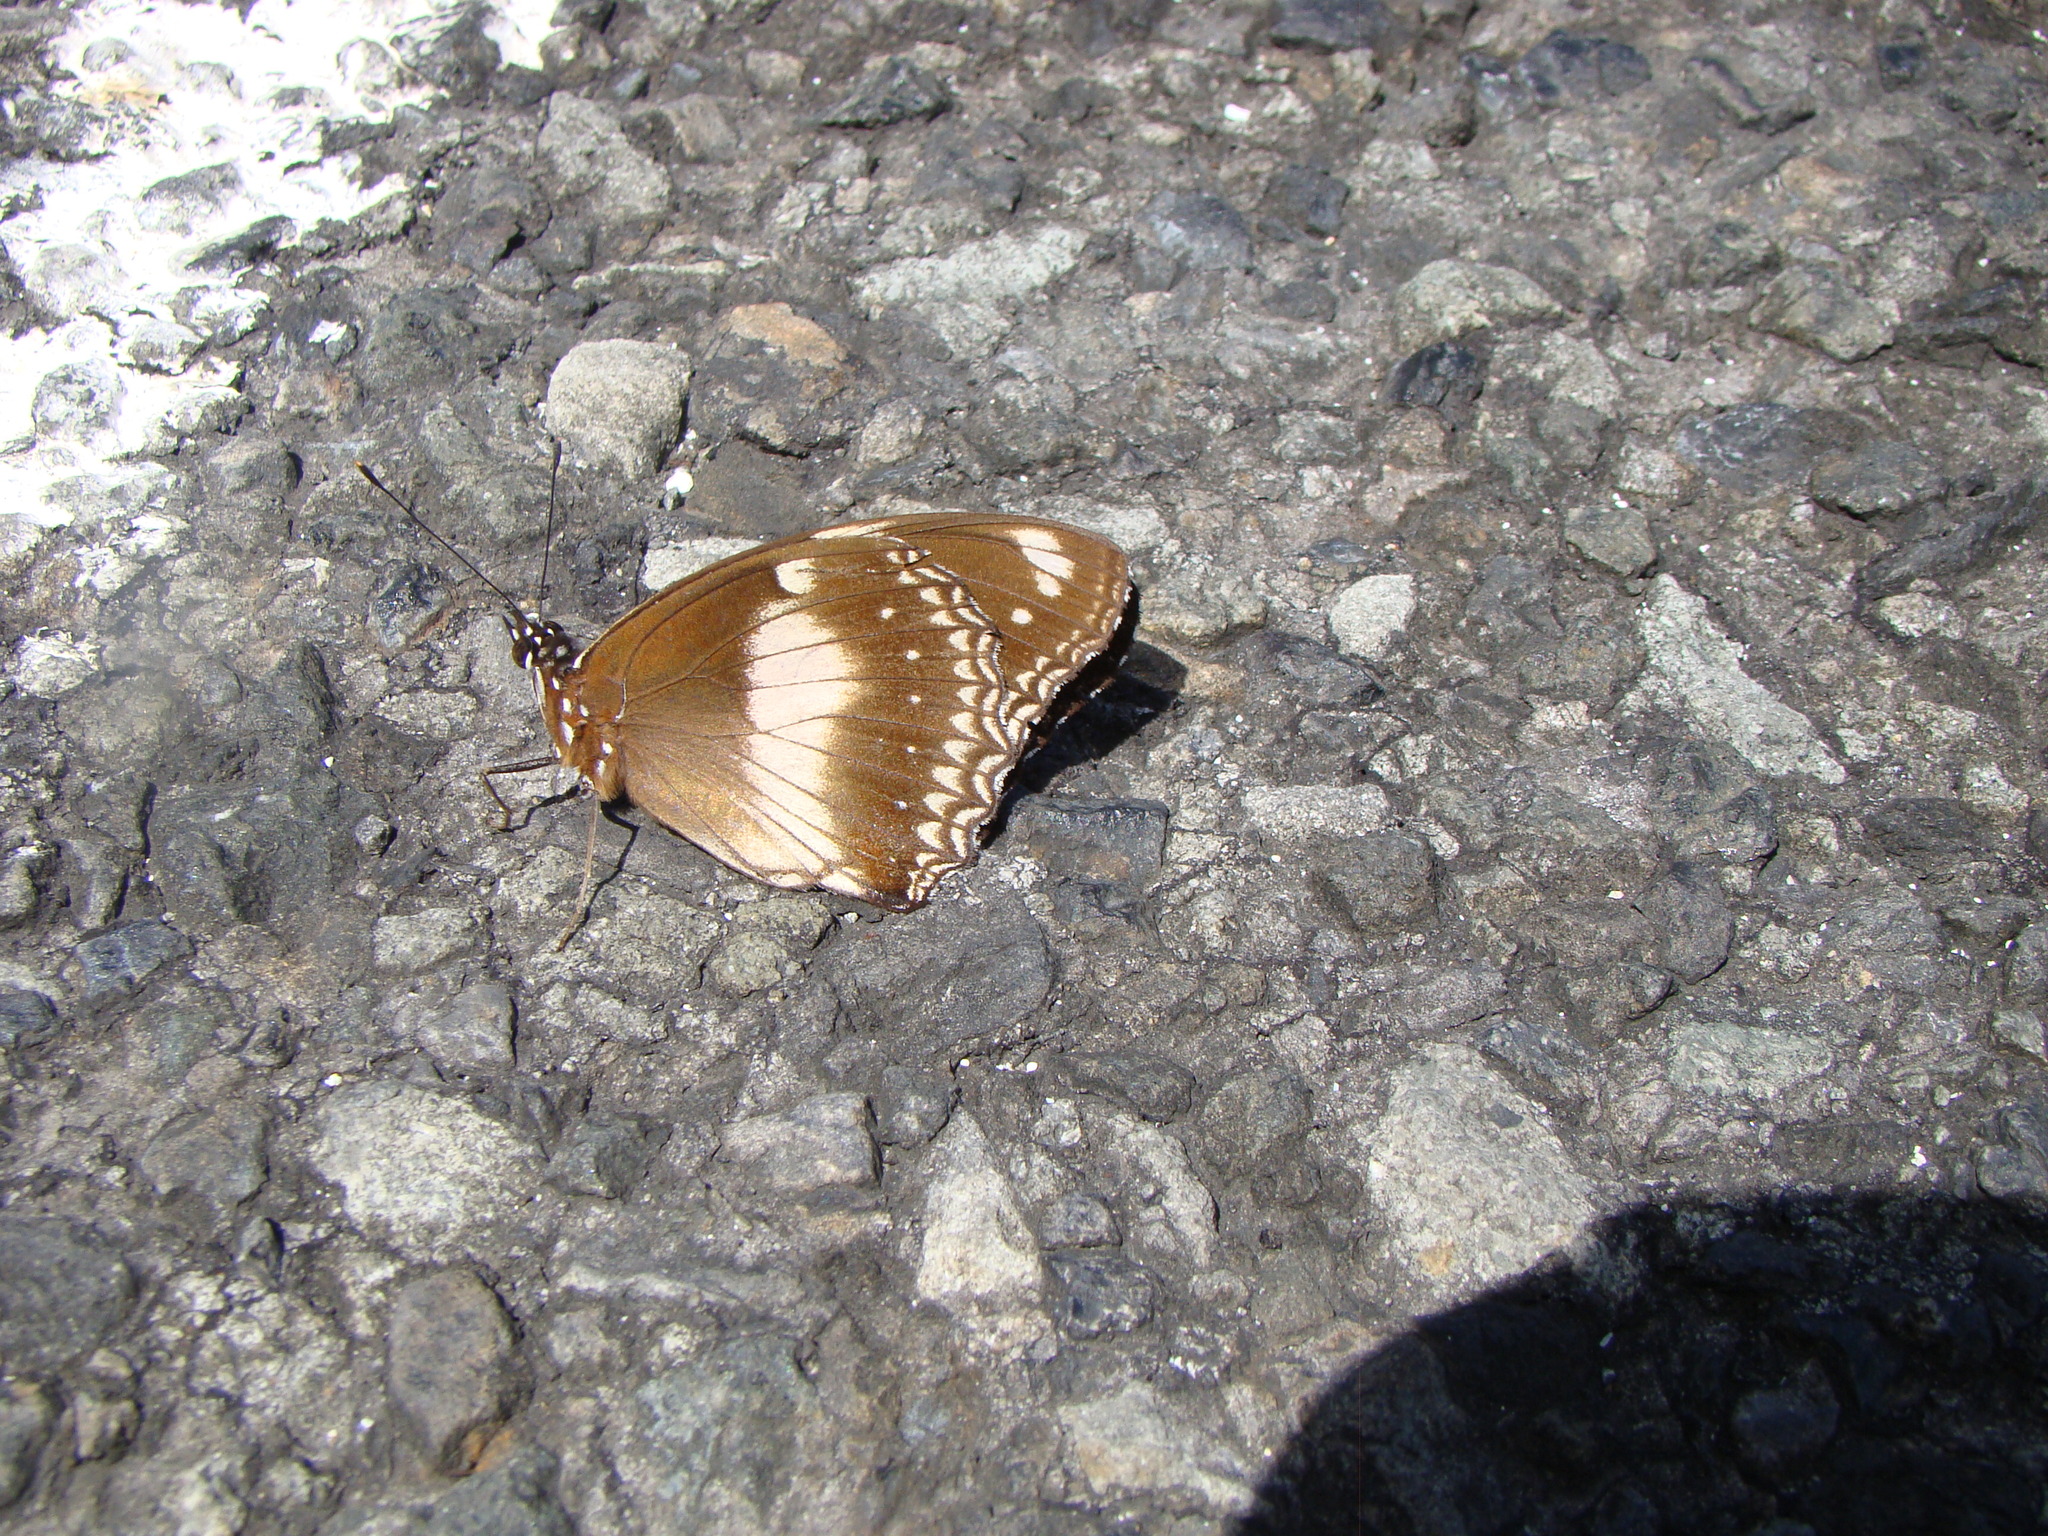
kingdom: Animalia
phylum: Arthropoda
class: Insecta
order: Lepidoptera
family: Nymphalidae
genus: Hypolimnas
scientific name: Hypolimnas bolina
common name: Great eggfly
